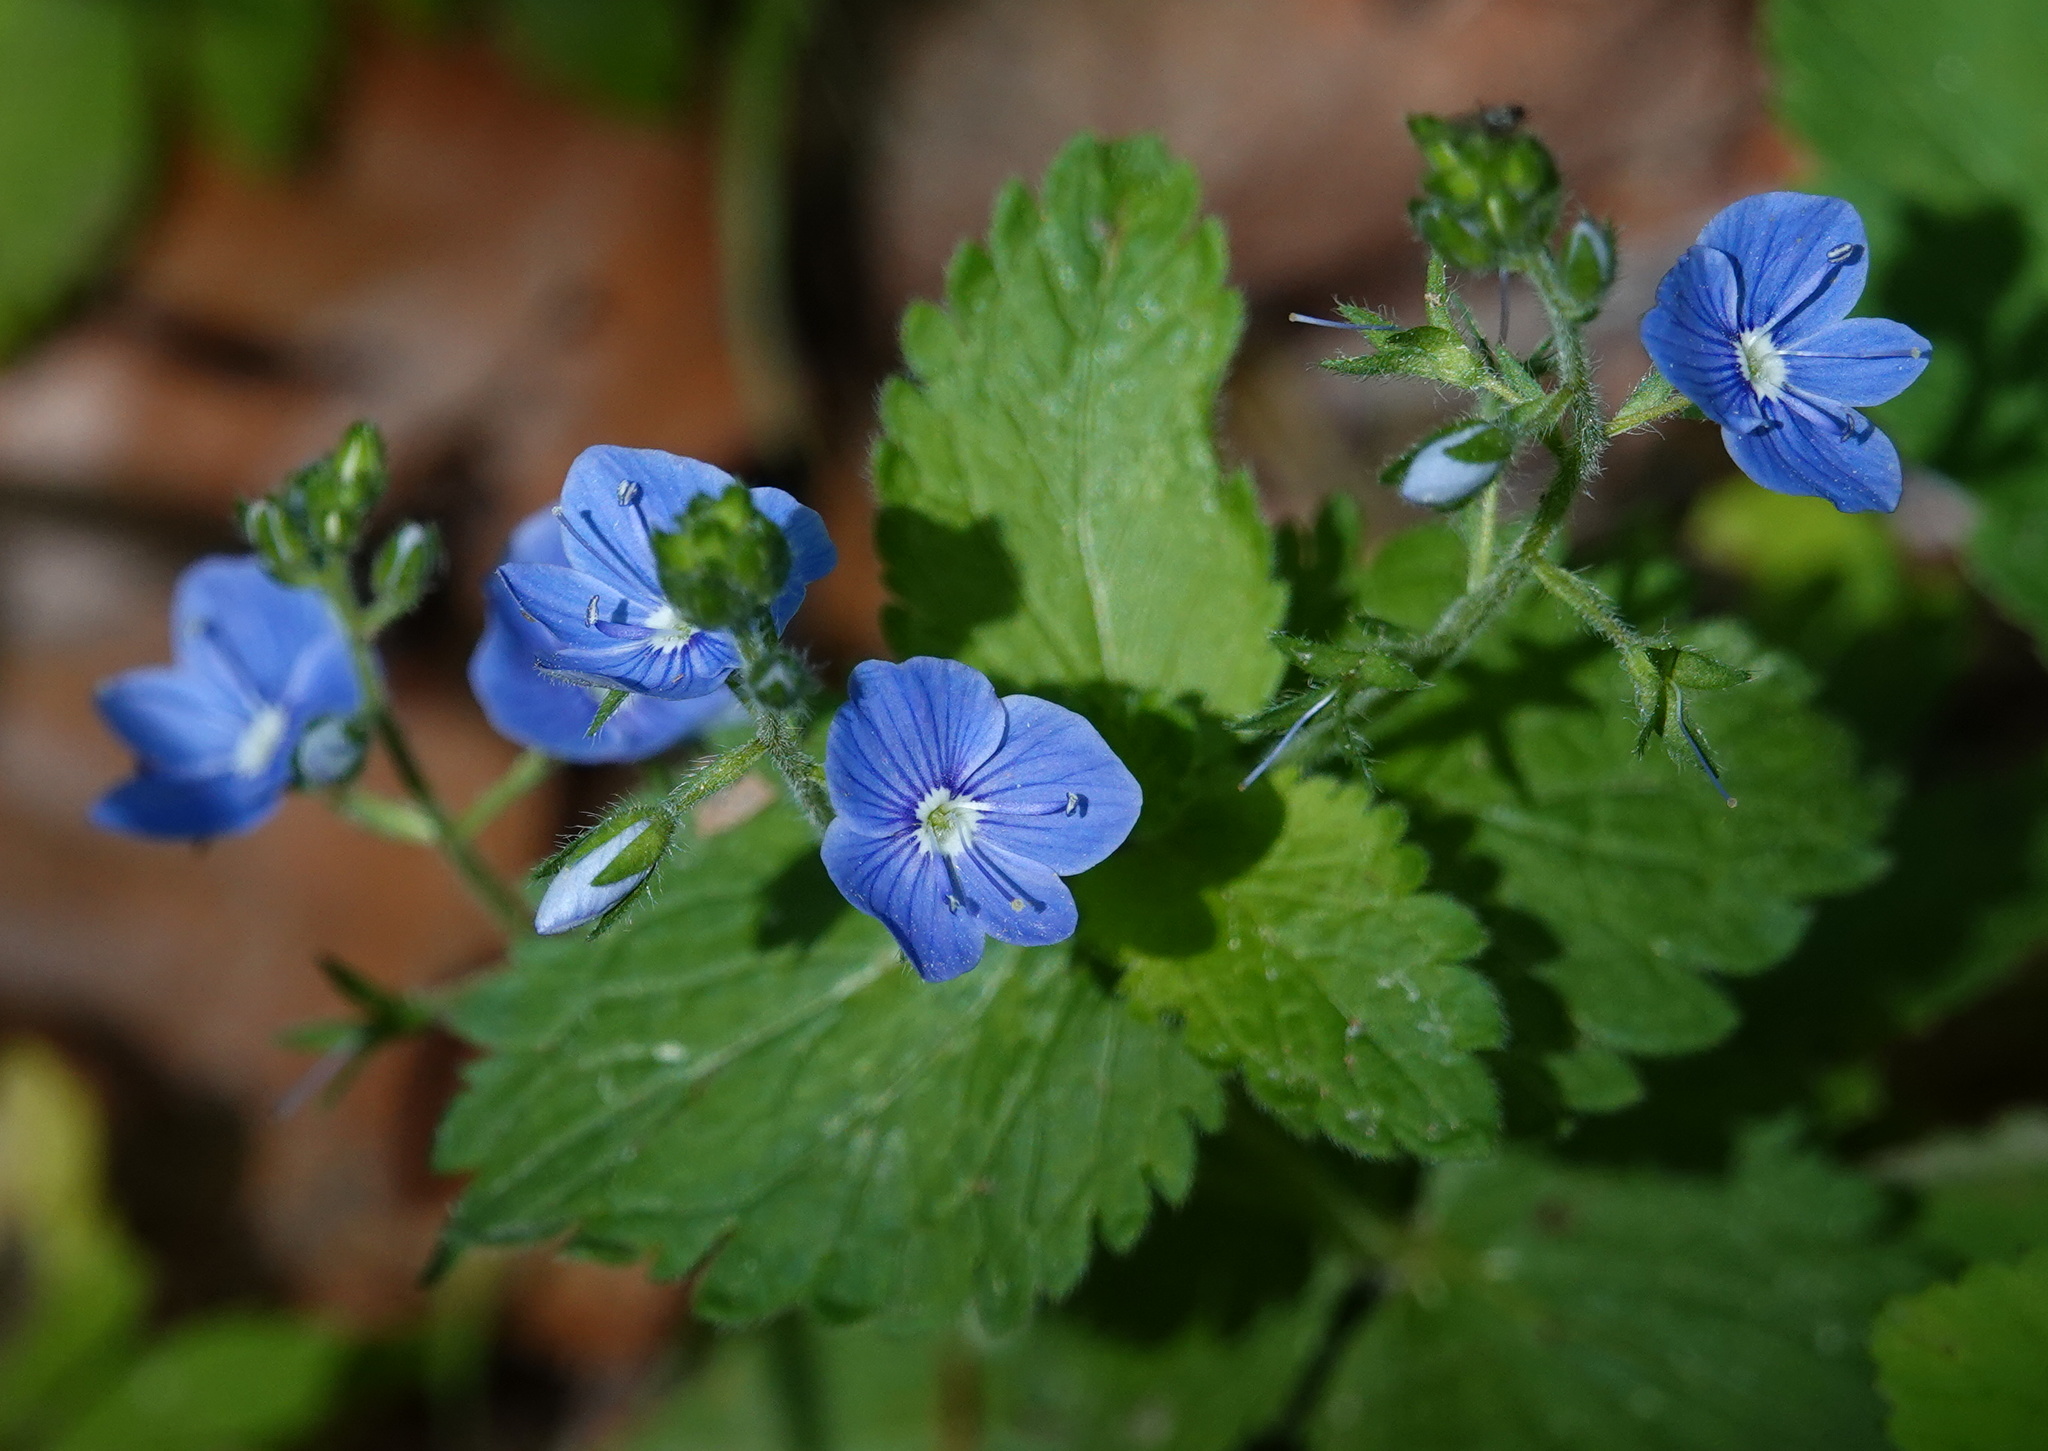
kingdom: Plantae
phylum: Tracheophyta
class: Magnoliopsida
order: Lamiales
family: Plantaginaceae
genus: Veronica
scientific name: Veronica chamaedrys
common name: Germander speedwell
